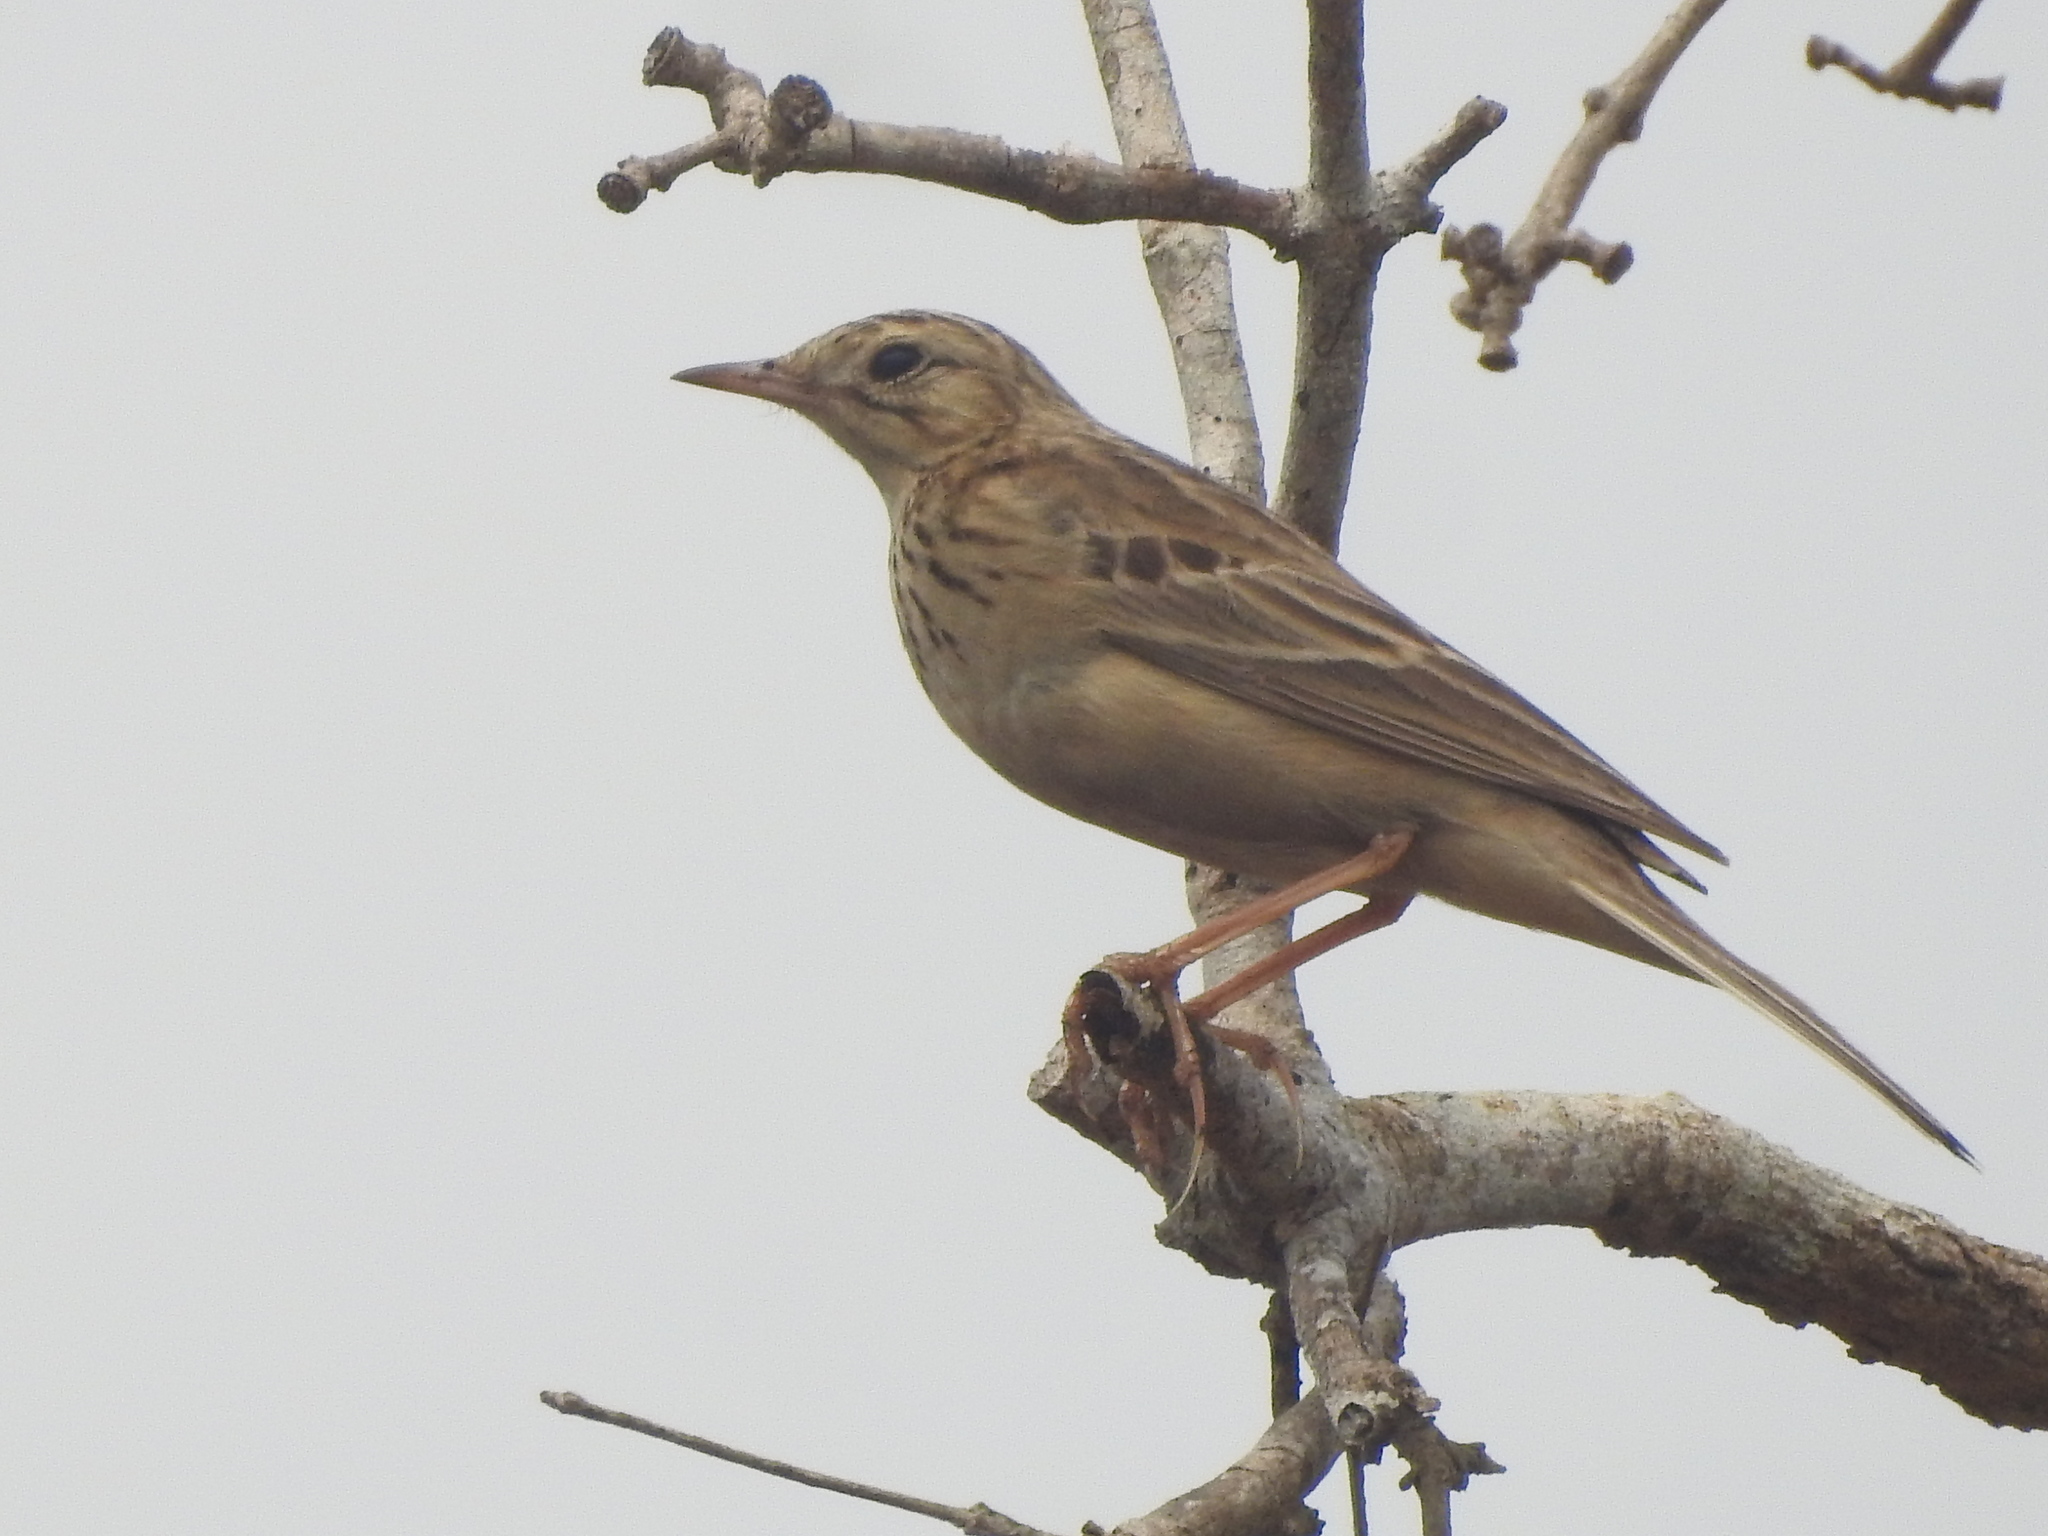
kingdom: Animalia
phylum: Chordata
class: Aves
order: Passeriformes
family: Motacillidae
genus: Anthus
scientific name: Anthus godlewskii
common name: Blyth's pipit
